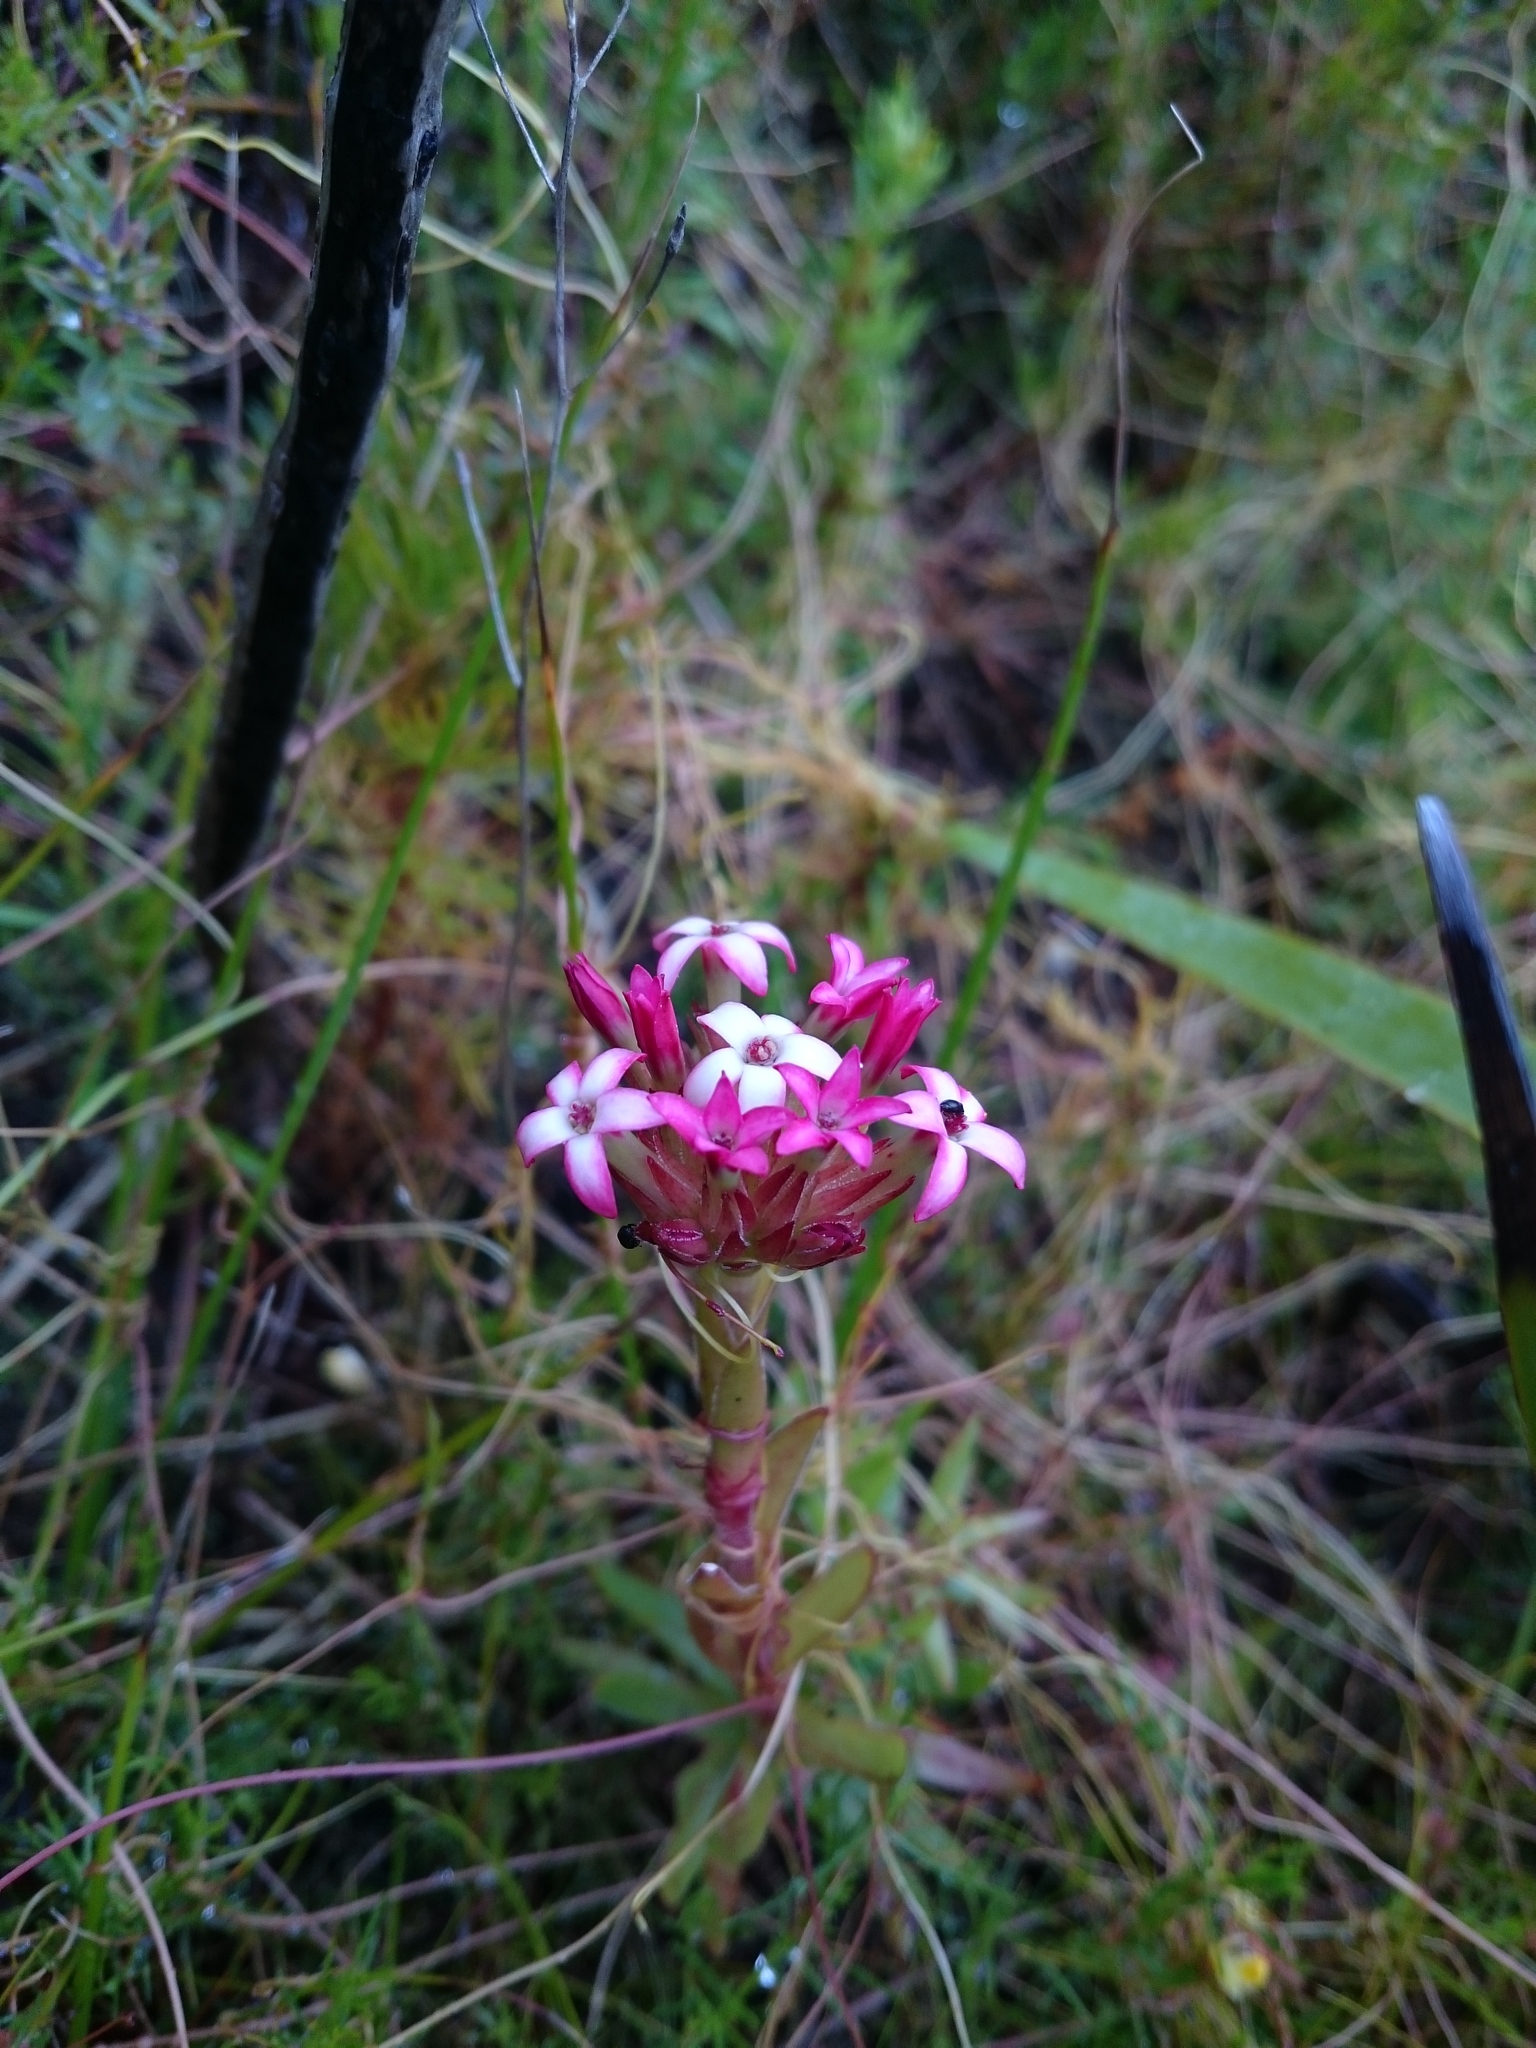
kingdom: Plantae
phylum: Tracheophyta
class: Magnoliopsida
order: Saxifragales
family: Crassulaceae
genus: Crassula
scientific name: Crassula fascicularis
